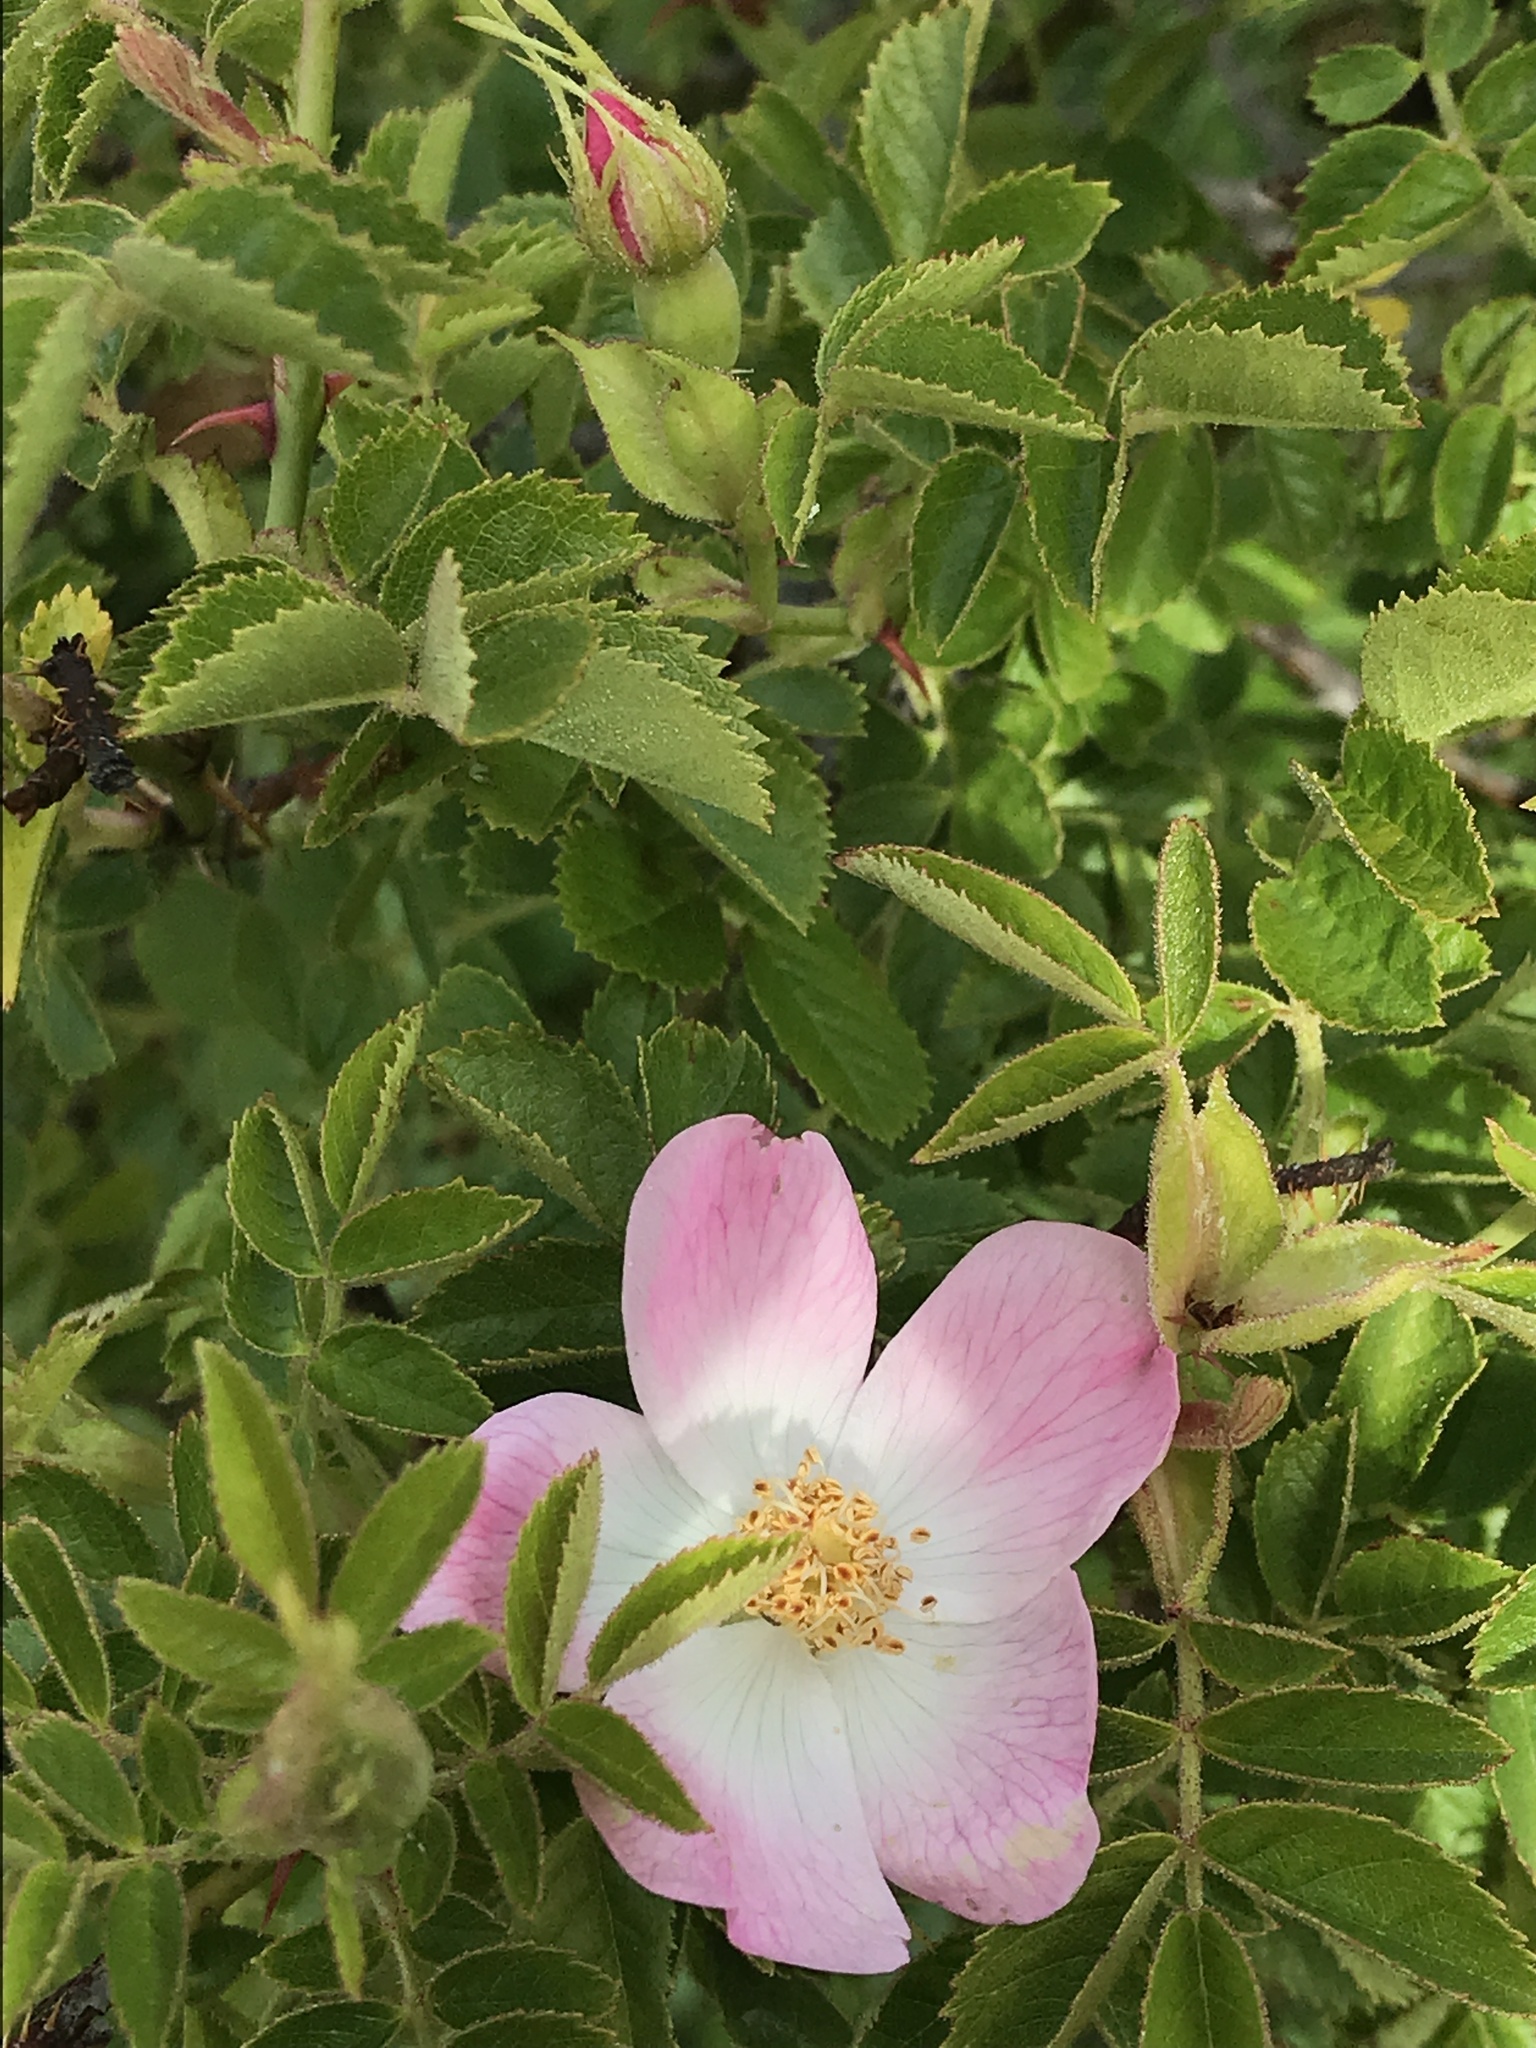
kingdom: Plantae
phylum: Tracheophyta
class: Magnoliopsida
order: Rosales
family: Rosaceae
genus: Rosa
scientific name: Rosa rubiginosa
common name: Sweet-briar
